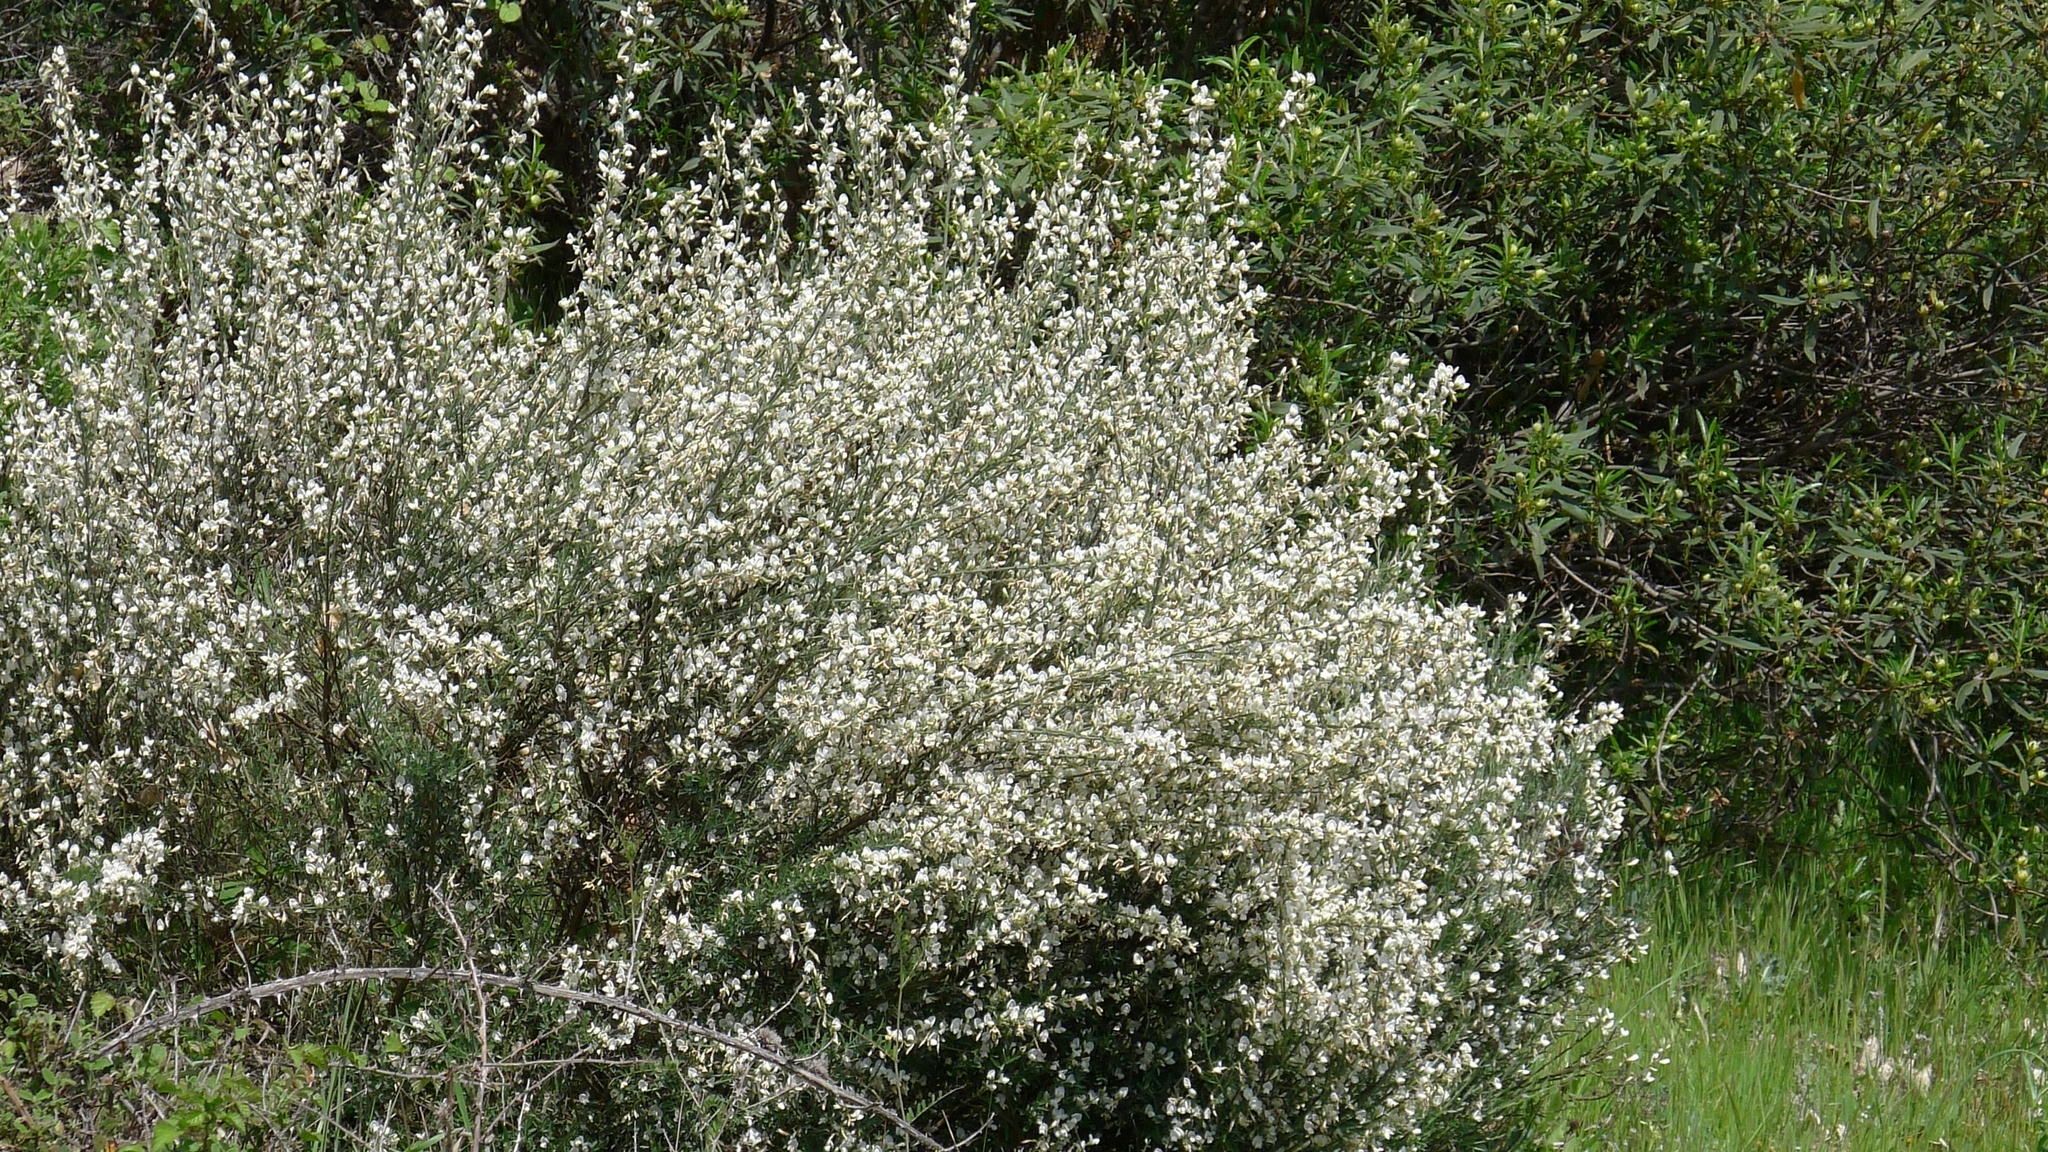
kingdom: Plantae
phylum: Tracheophyta
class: Magnoliopsida
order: Fabales
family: Fabaceae
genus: Cytisus
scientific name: Cytisus multiflorus
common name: White broom
